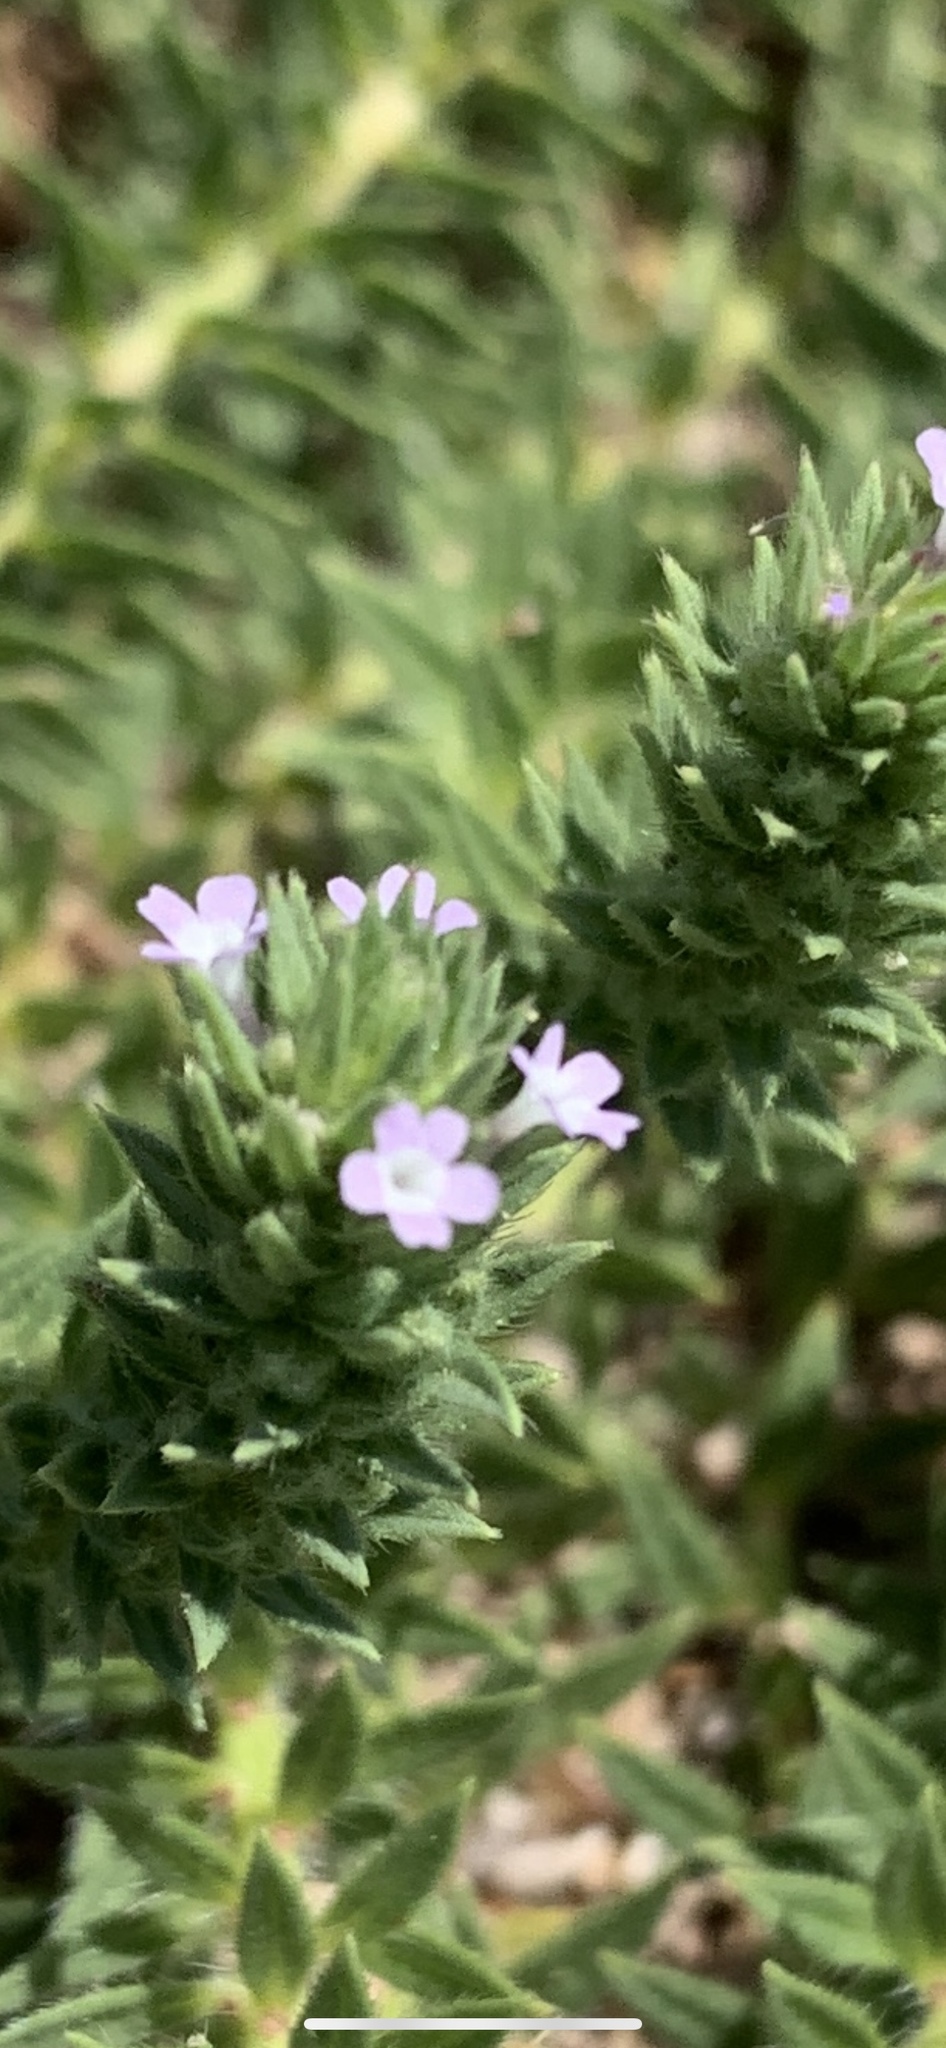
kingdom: Plantae
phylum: Tracheophyta
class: Magnoliopsida
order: Lamiales
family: Verbenaceae
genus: Verbena
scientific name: Verbena bracteata
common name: Bracted vervain
